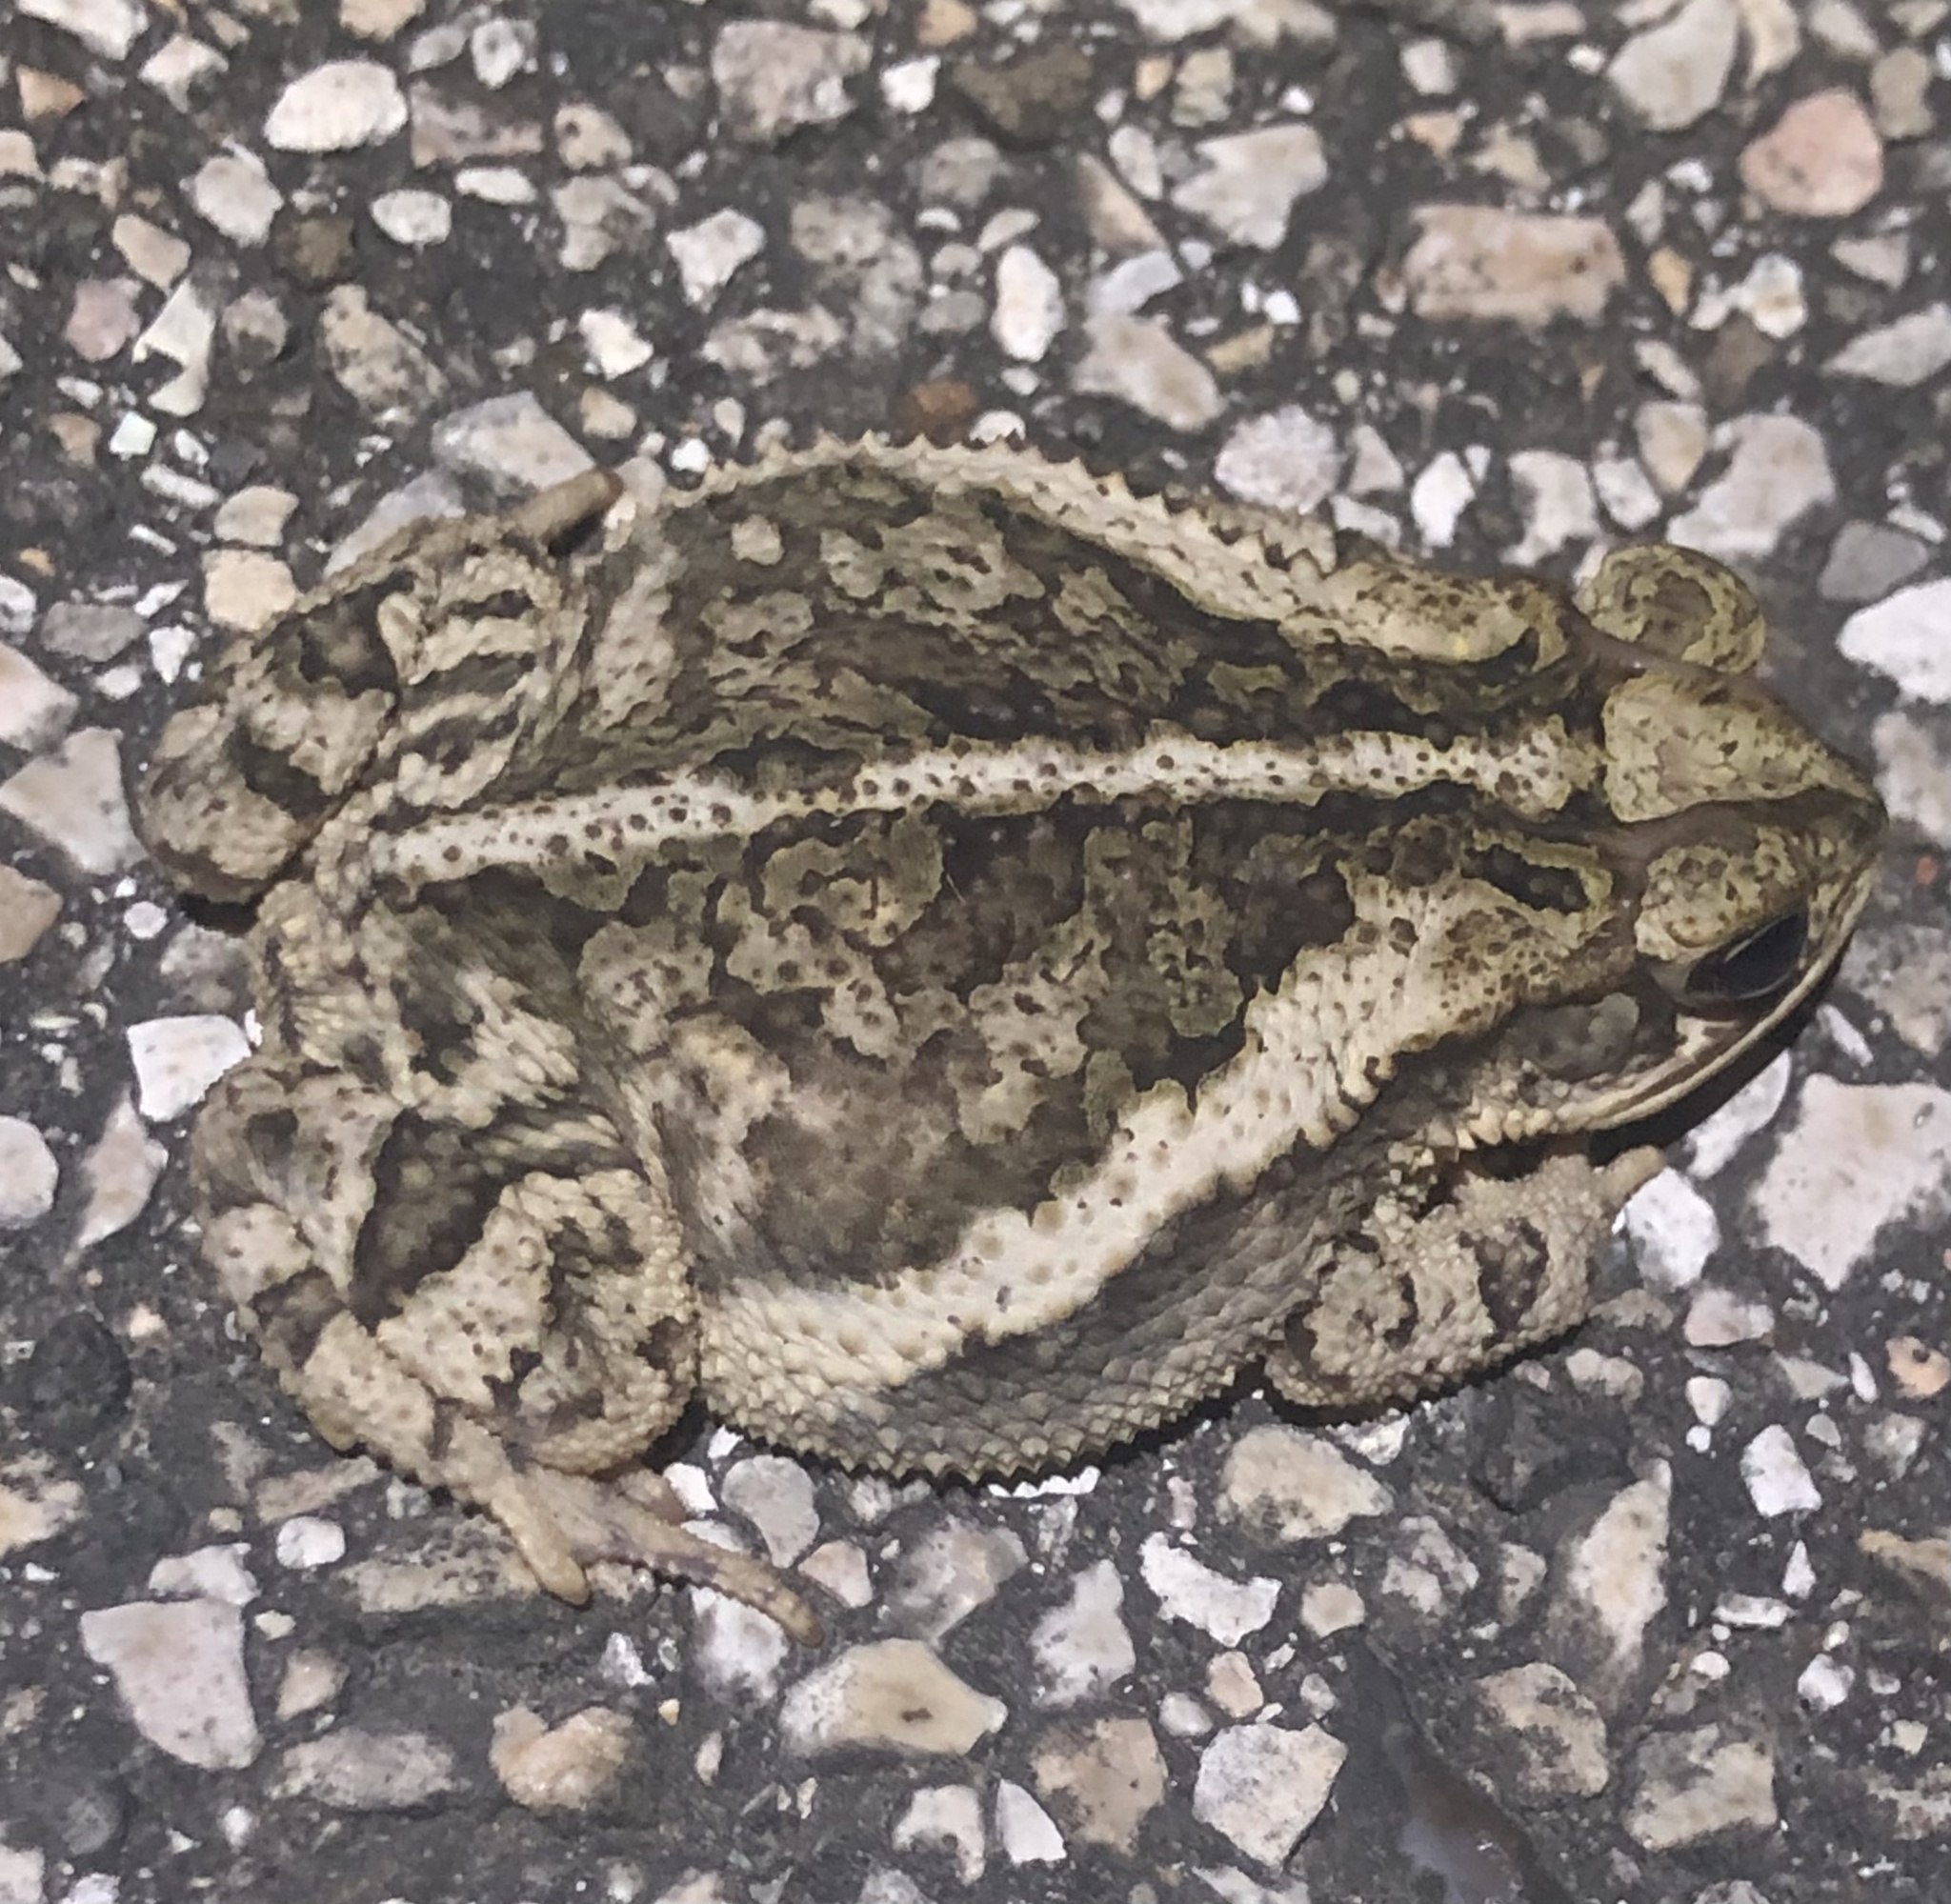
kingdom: Animalia
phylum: Chordata
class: Amphibia
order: Anura
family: Bufonidae
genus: Incilius
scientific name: Incilius nebulifer
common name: Gulf coast toad
